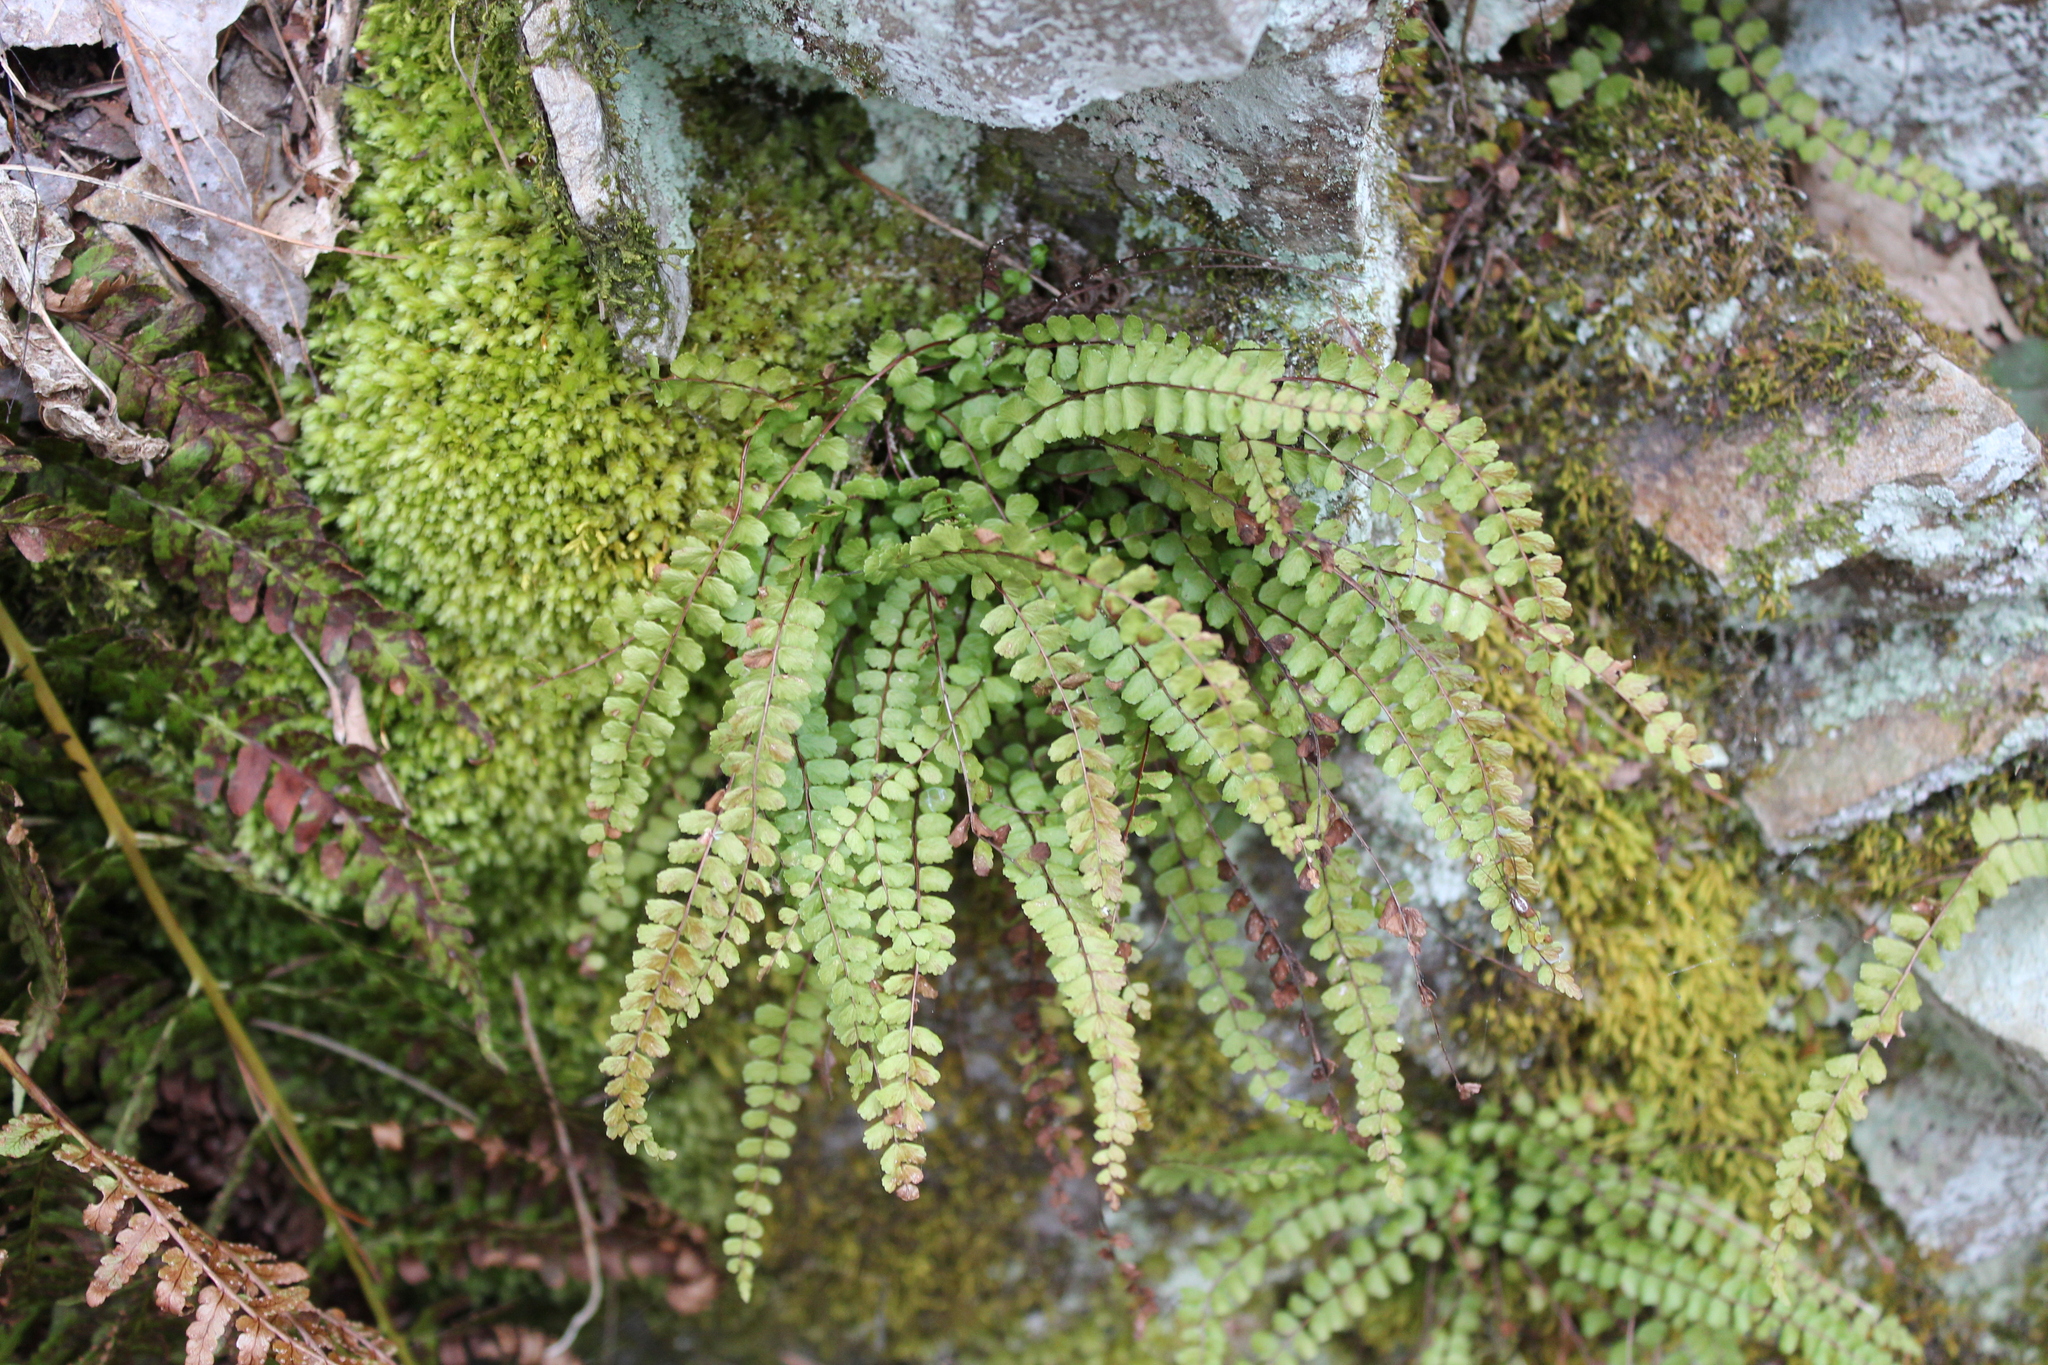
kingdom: Plantae
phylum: Tracheophyta
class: Polypodiopsida
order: Polypodiales
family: Aspleniaceae
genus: Asplenium
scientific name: Asplenium trichomanes
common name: Maidenhair spleenwort
